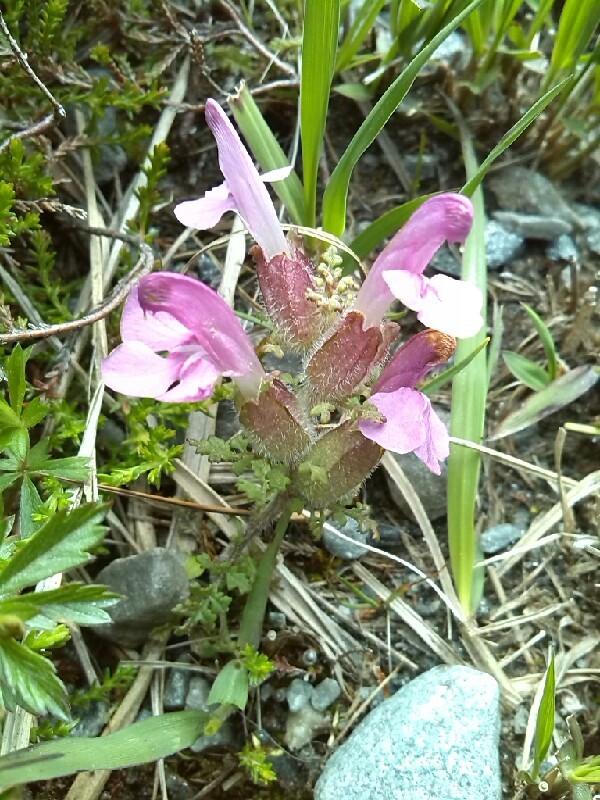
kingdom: Plantae
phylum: Tracheophyta
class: Magnoliopsida
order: Lamiales
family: Orobanchaceae
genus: Pedicularis
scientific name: Pedicularis sylvatica
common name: Lousewort
